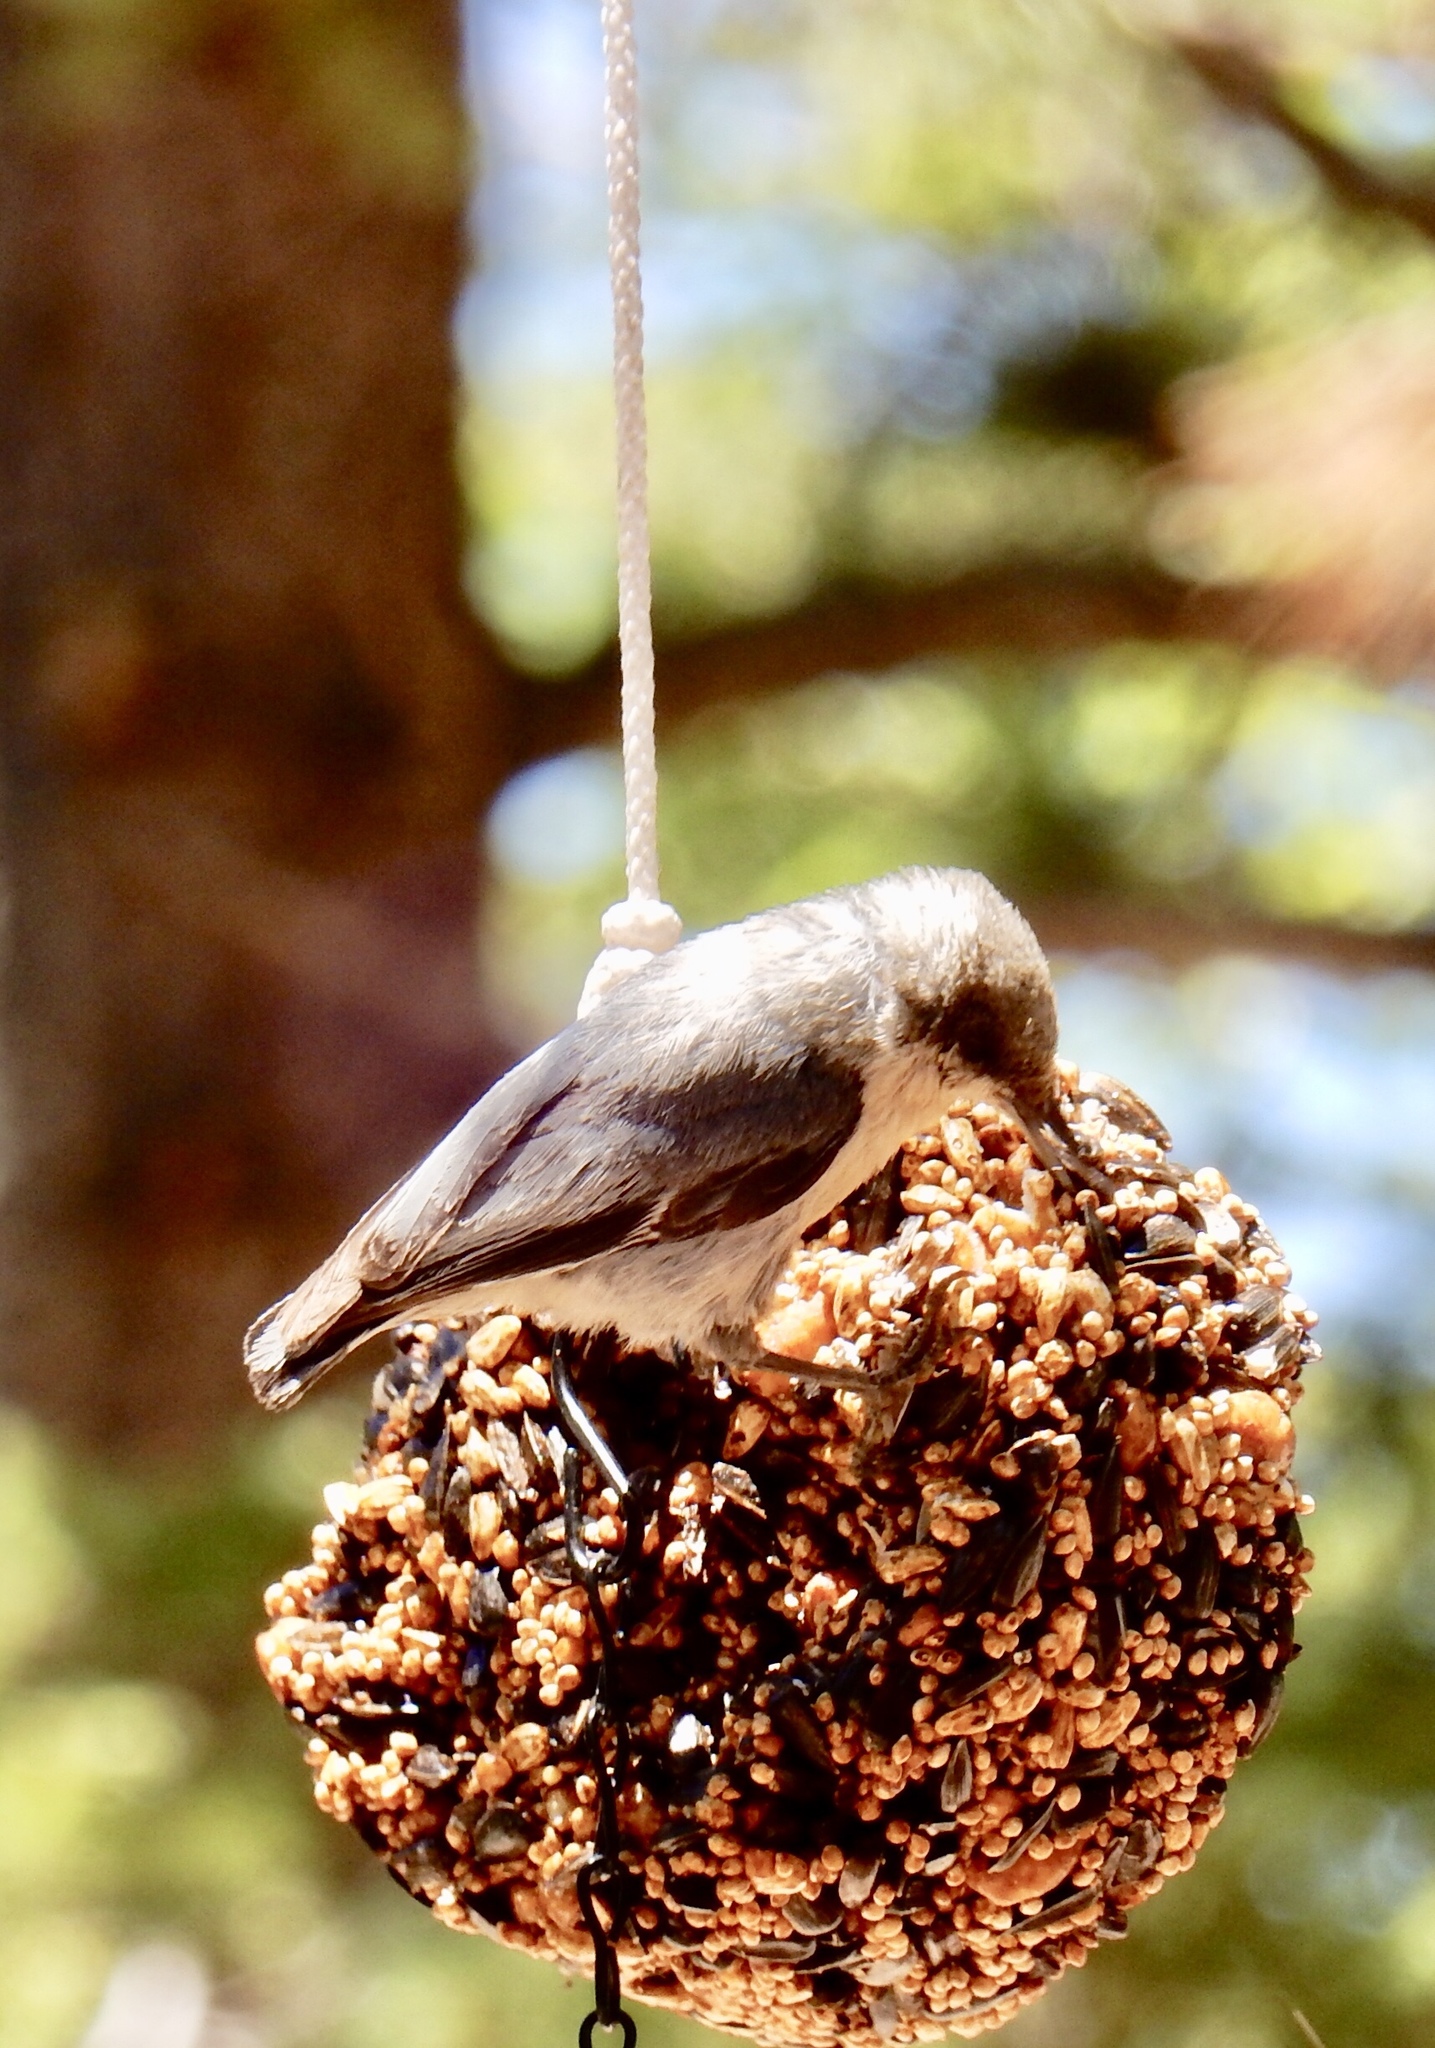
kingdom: Animalia
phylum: Chordata
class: Aves
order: Passeriformes
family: Sittidae
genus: Sitta
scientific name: Sitta pygmaea
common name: Pygmy nuthatch
